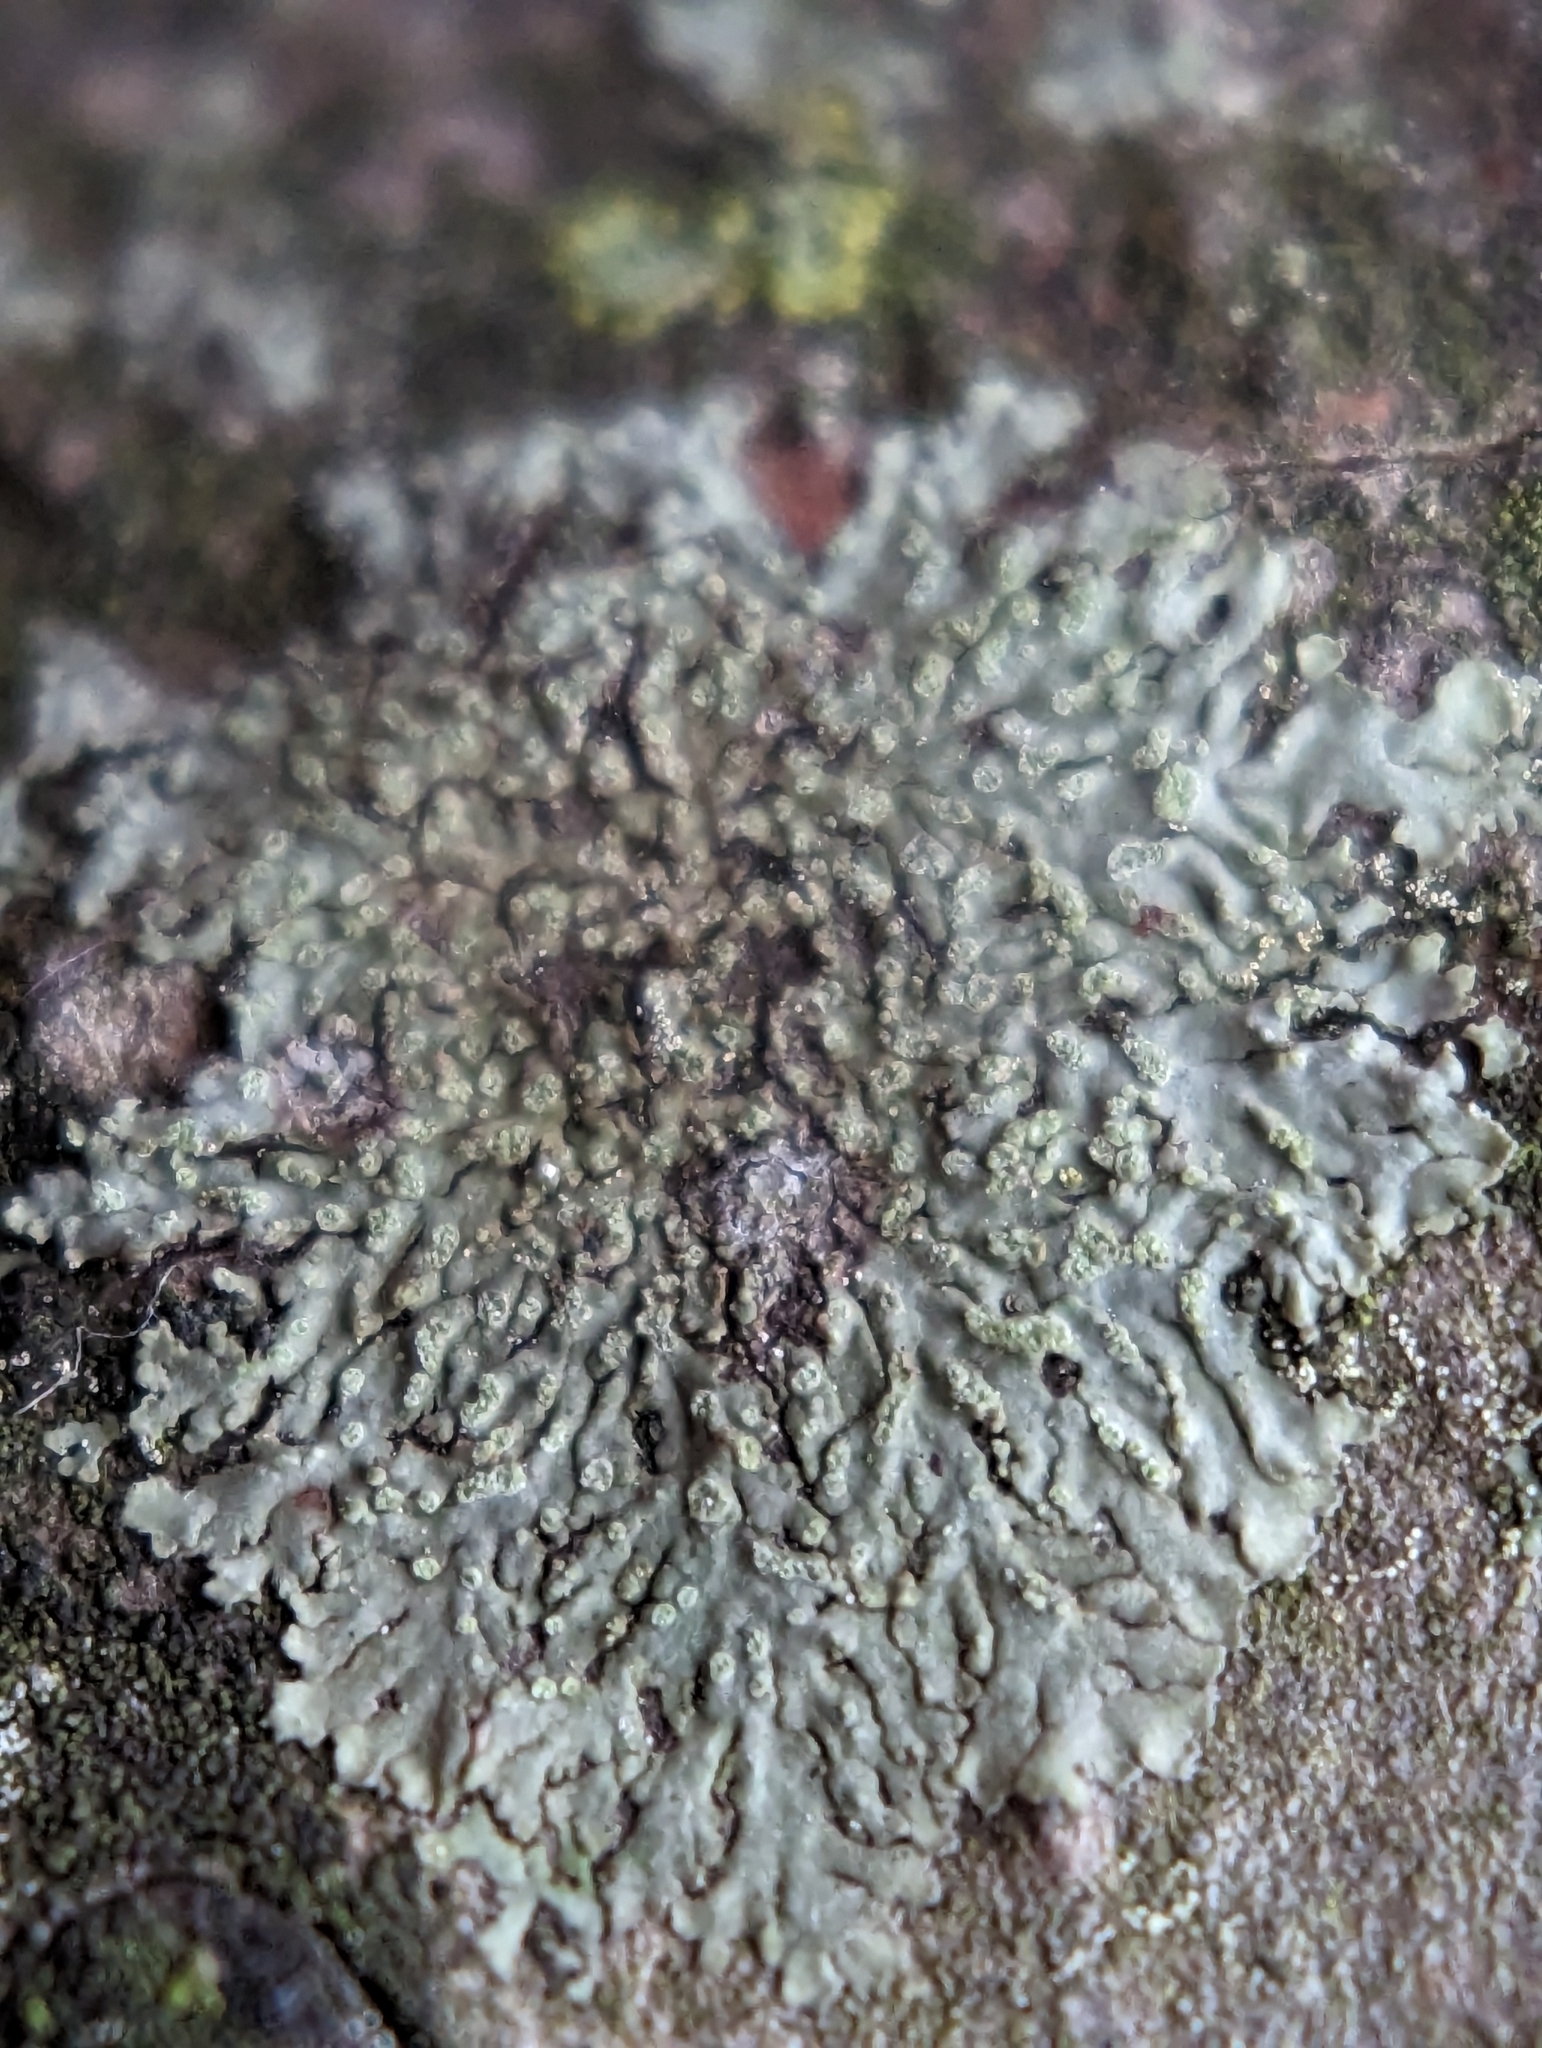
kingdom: Fungi
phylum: Ascomycota
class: Lecanoromycetes
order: Caliciales
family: Physciaceae
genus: Hyperphyscia
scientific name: Hyperphyscia adglutinata
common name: Grainy shadow-crust lichen
